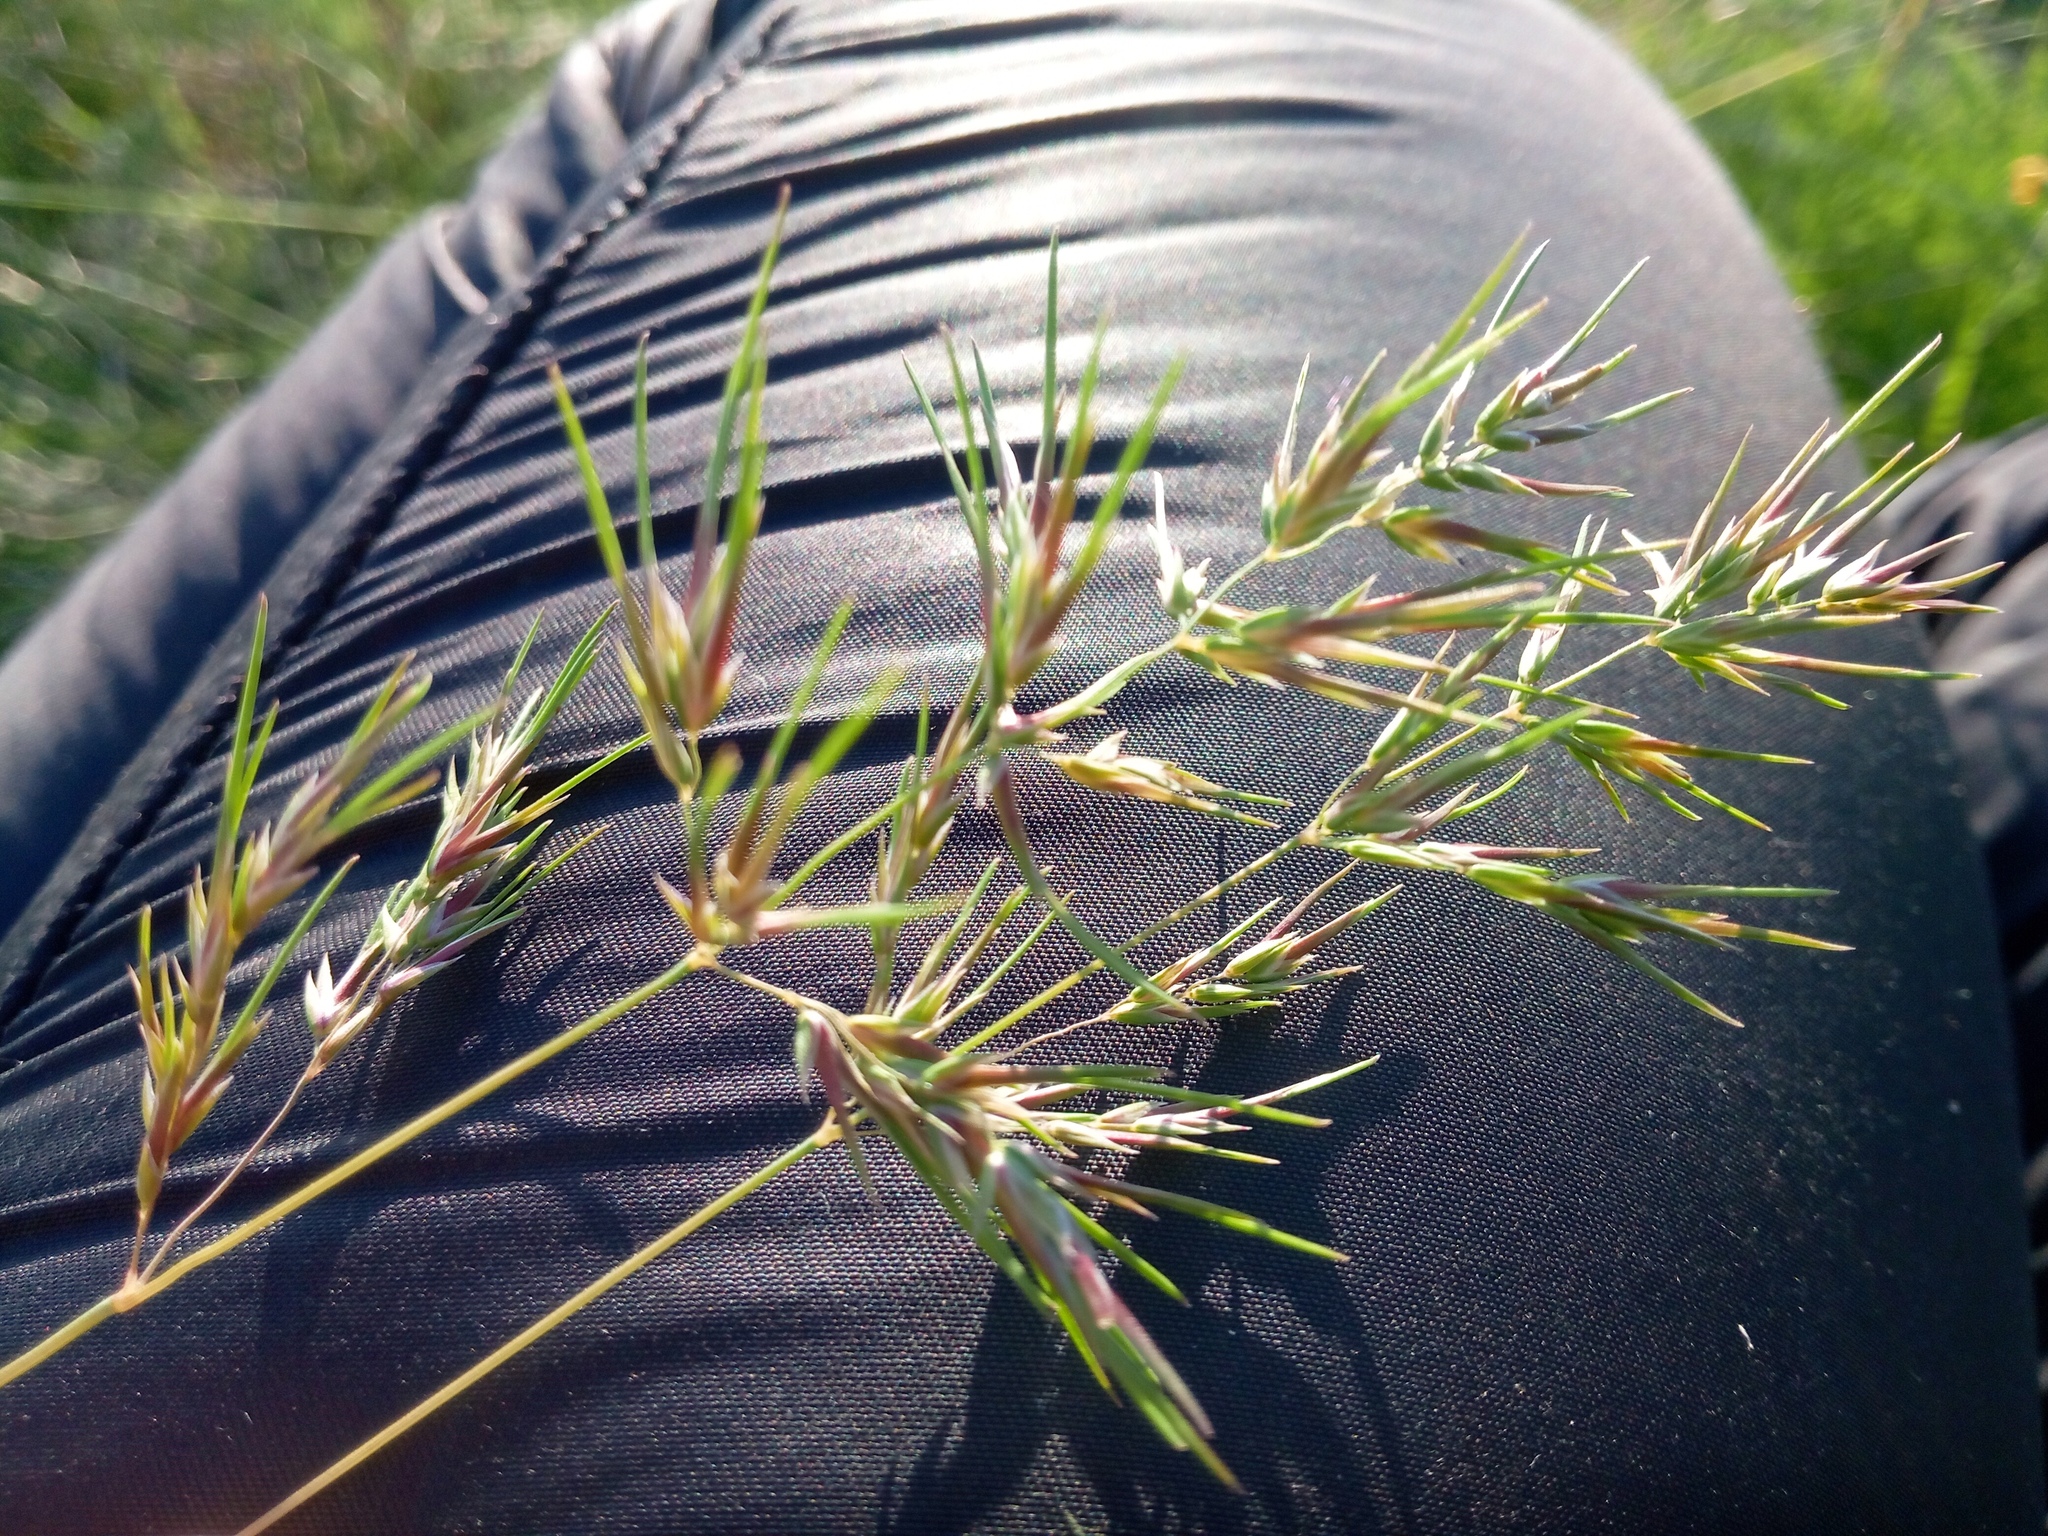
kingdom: Plantae
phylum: Tracheophyta
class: Liliopsida
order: Poales
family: Poaceae
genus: Poa
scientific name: Poa bulbosa
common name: Bulbous bluegrass
